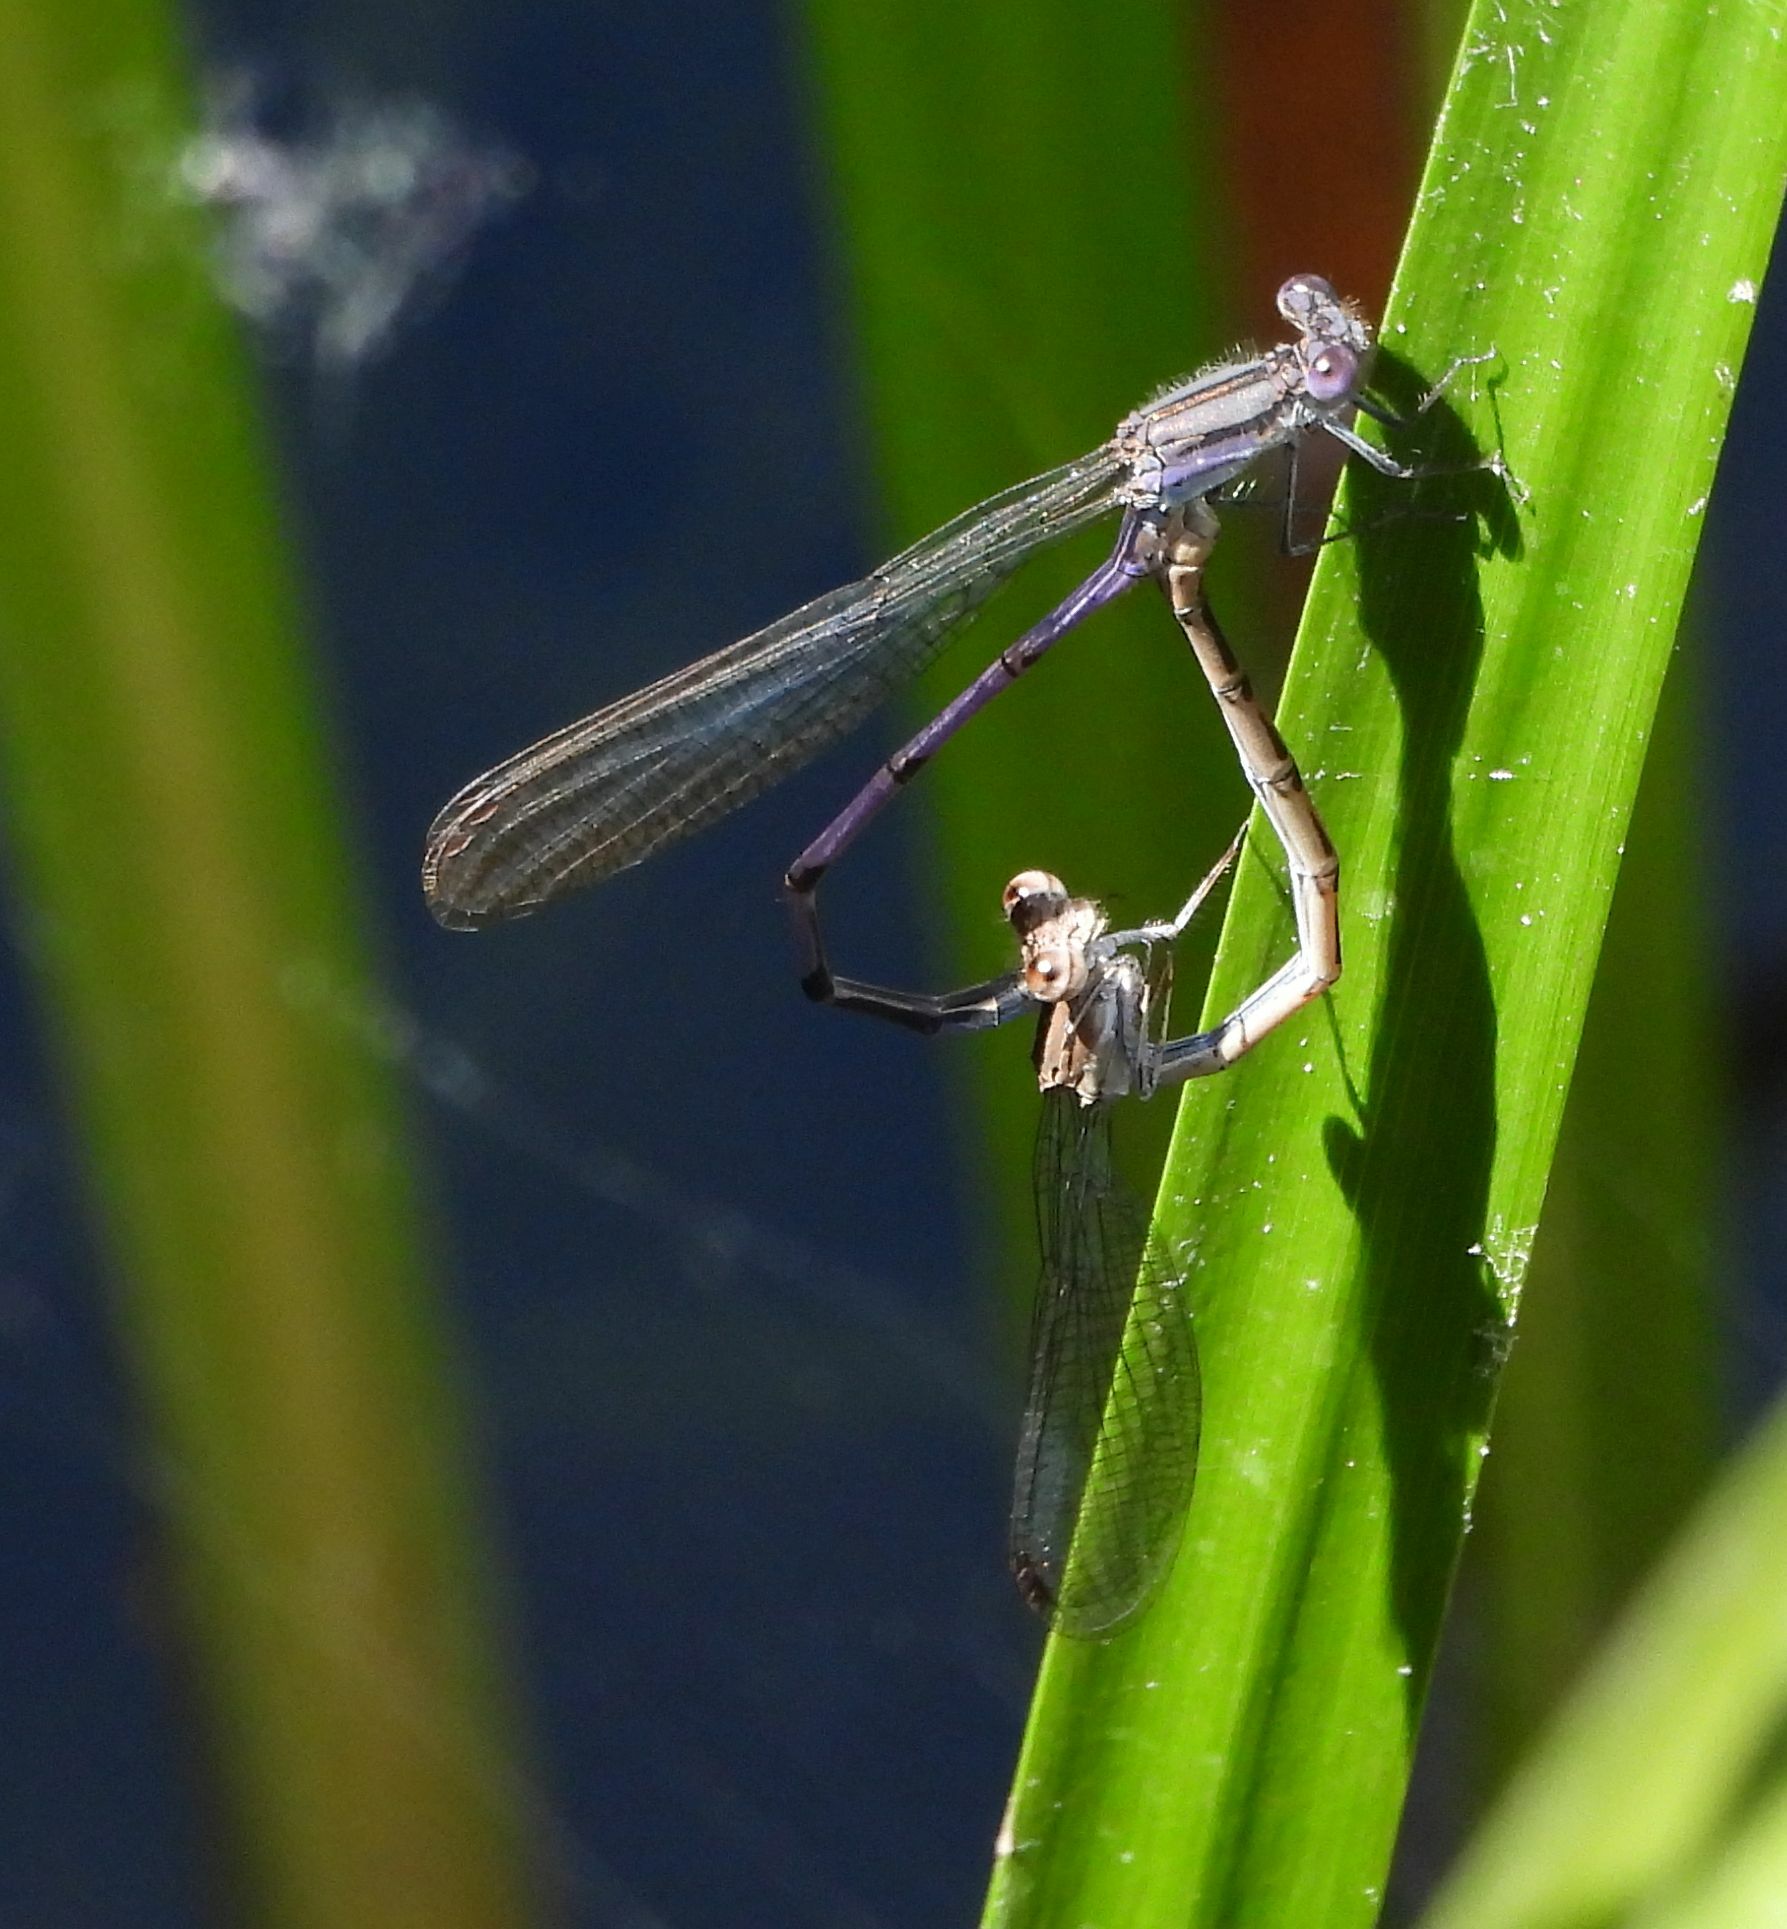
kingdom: Animalia
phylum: Arthropoda
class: Insecta
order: Odonata
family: Coenagrionidae
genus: Argia
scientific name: Argia fumipennis
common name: Variable dancer
